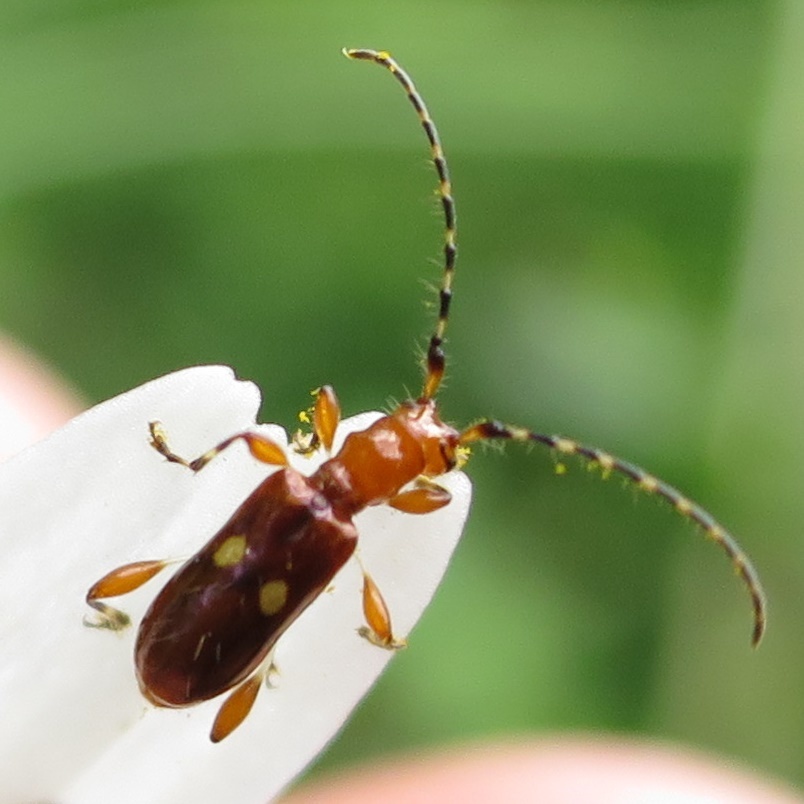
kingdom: Animalia
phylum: Arthropoda
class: Insecta
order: Coleoptera
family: Cerambycidae
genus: Zorion
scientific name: Zorion batesi
